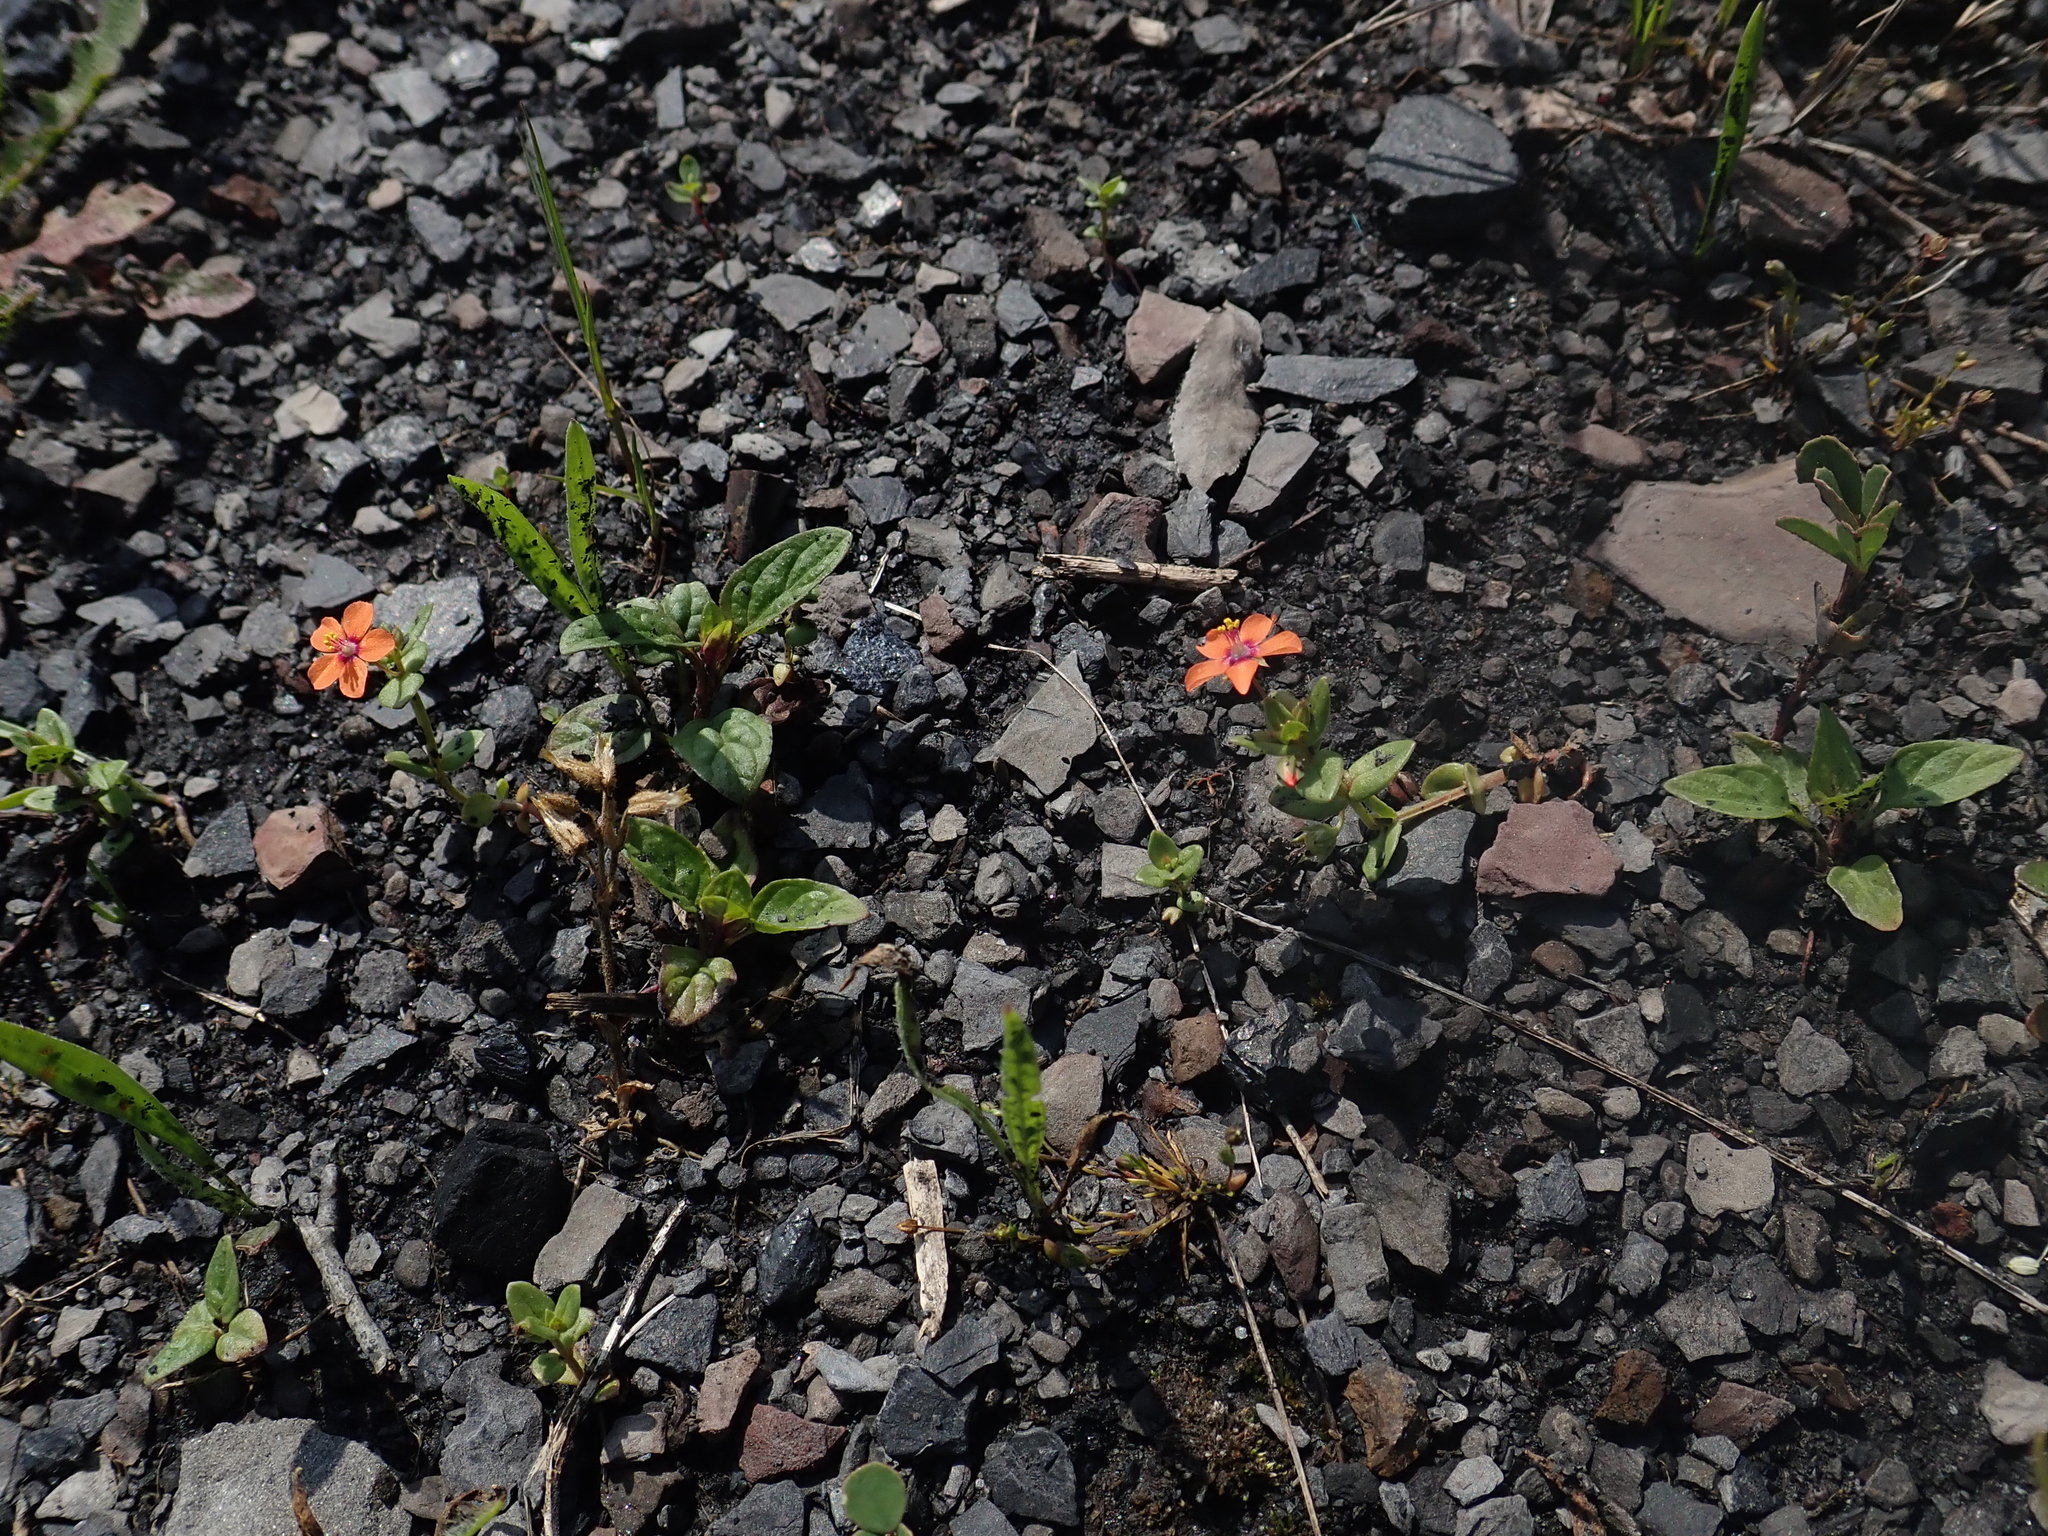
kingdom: Plantae
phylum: Tracheophyta
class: Magnoliopsida
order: Ericales
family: Primulaceae
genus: Lysimachia
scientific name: Lysimachia arvensis
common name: Scarlet pimpernel
